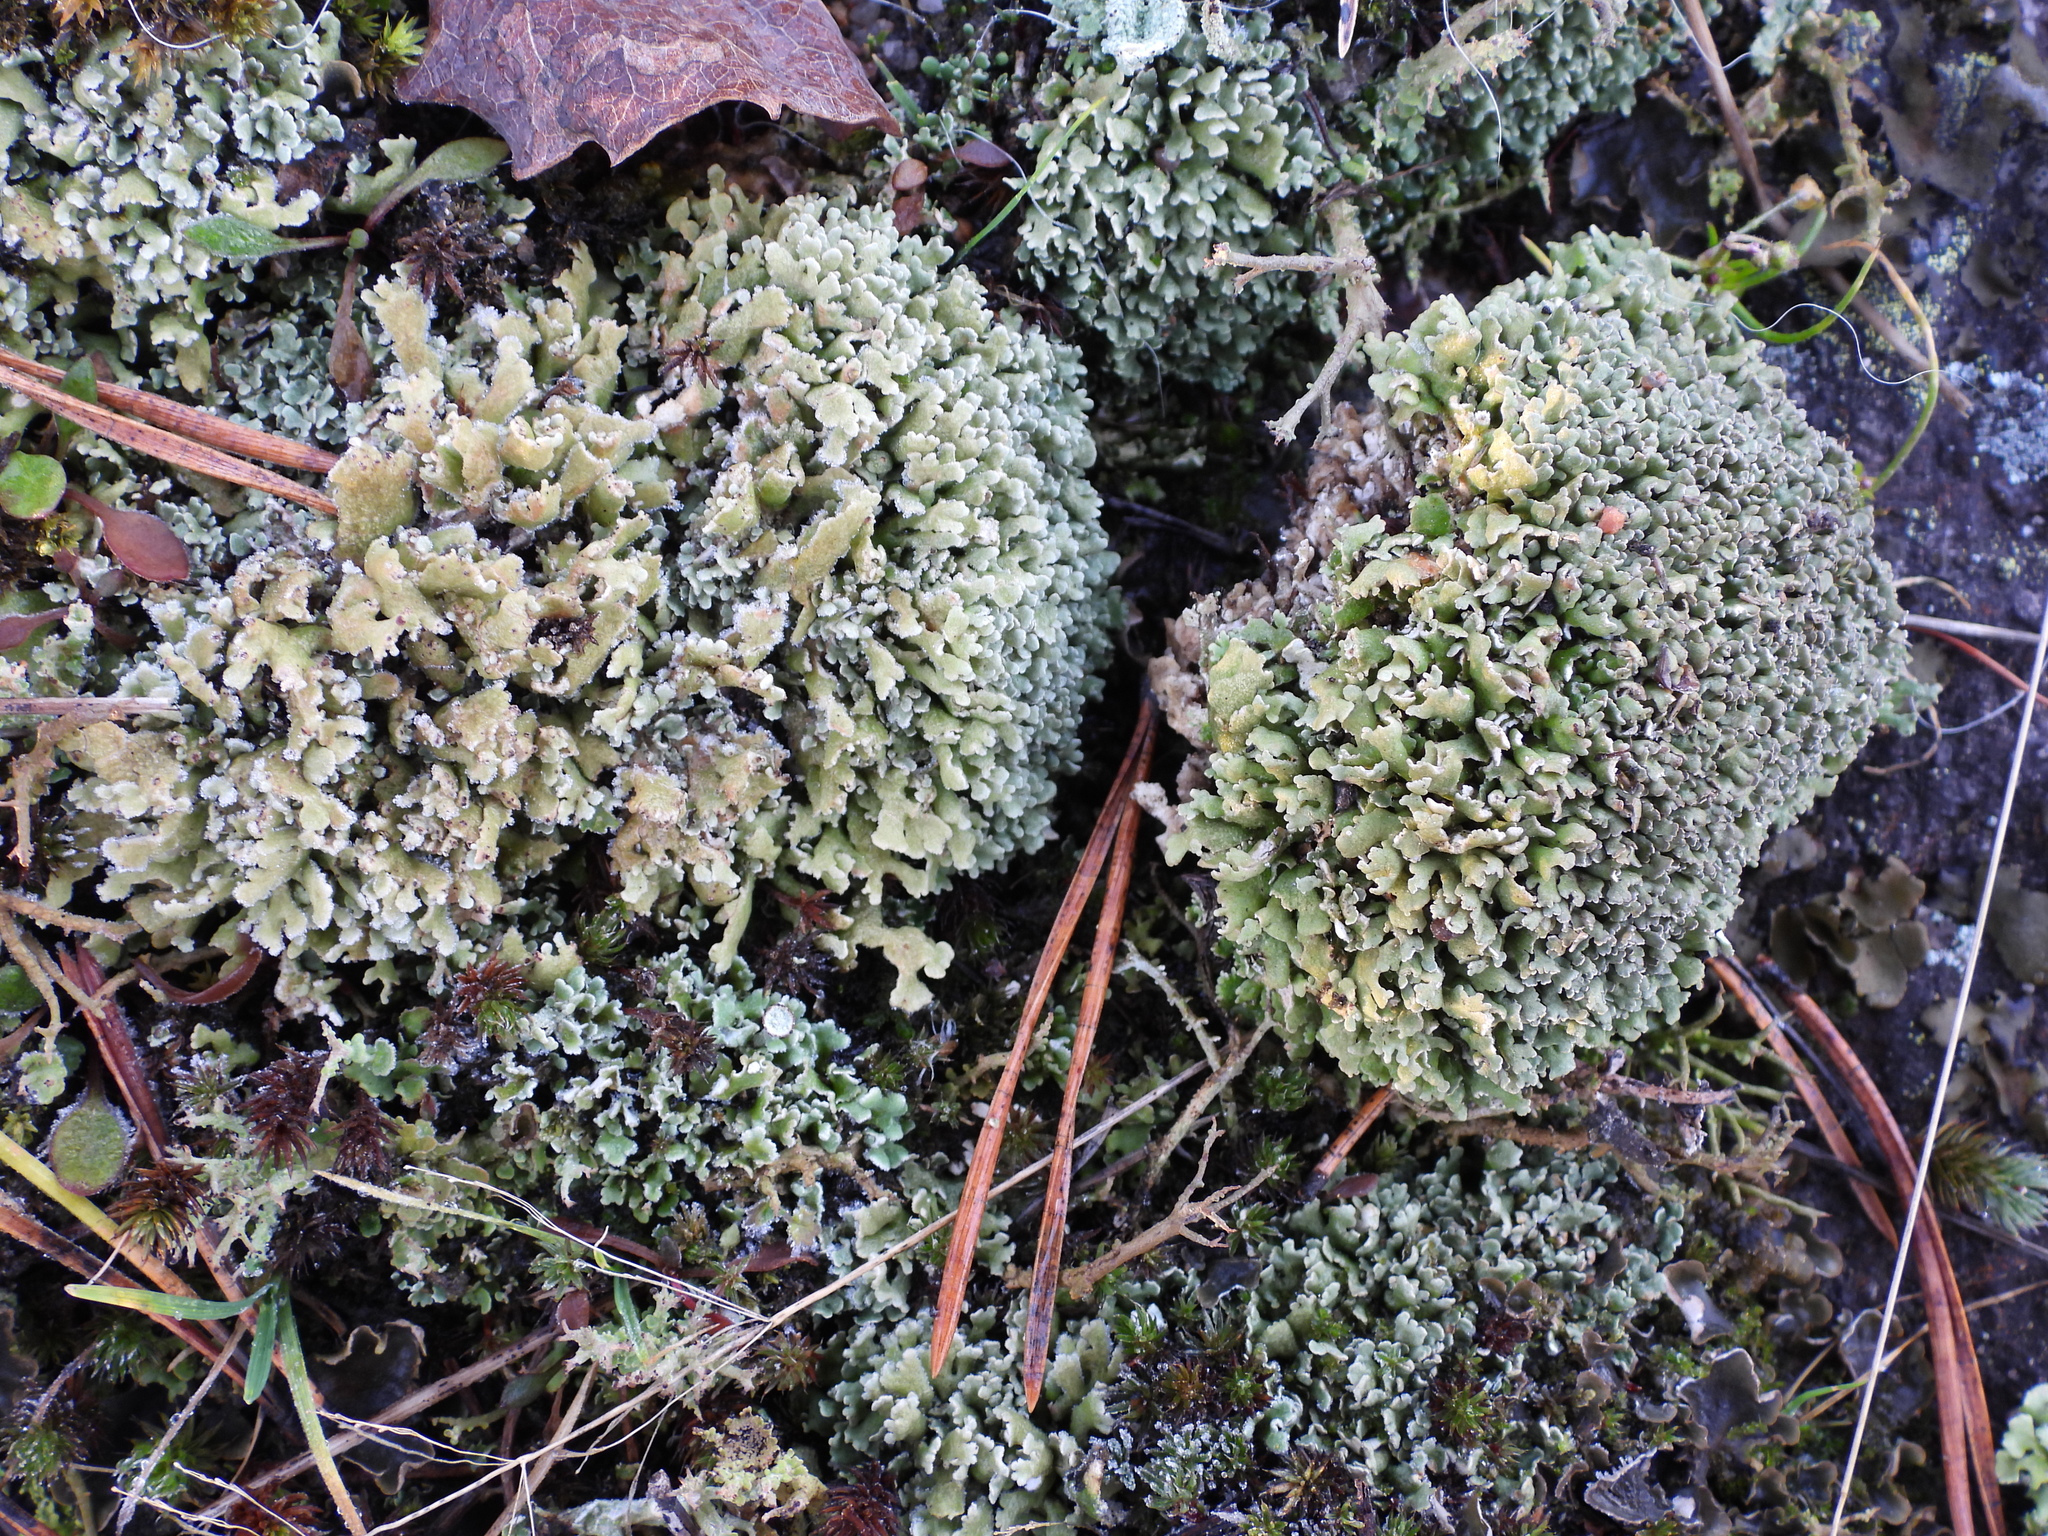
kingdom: Fungi
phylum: Ascomycota
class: Lecanoromycetes
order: Lecanorales
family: Cladoniaceae
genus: Cladonia
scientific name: Cladonia strepsilis
